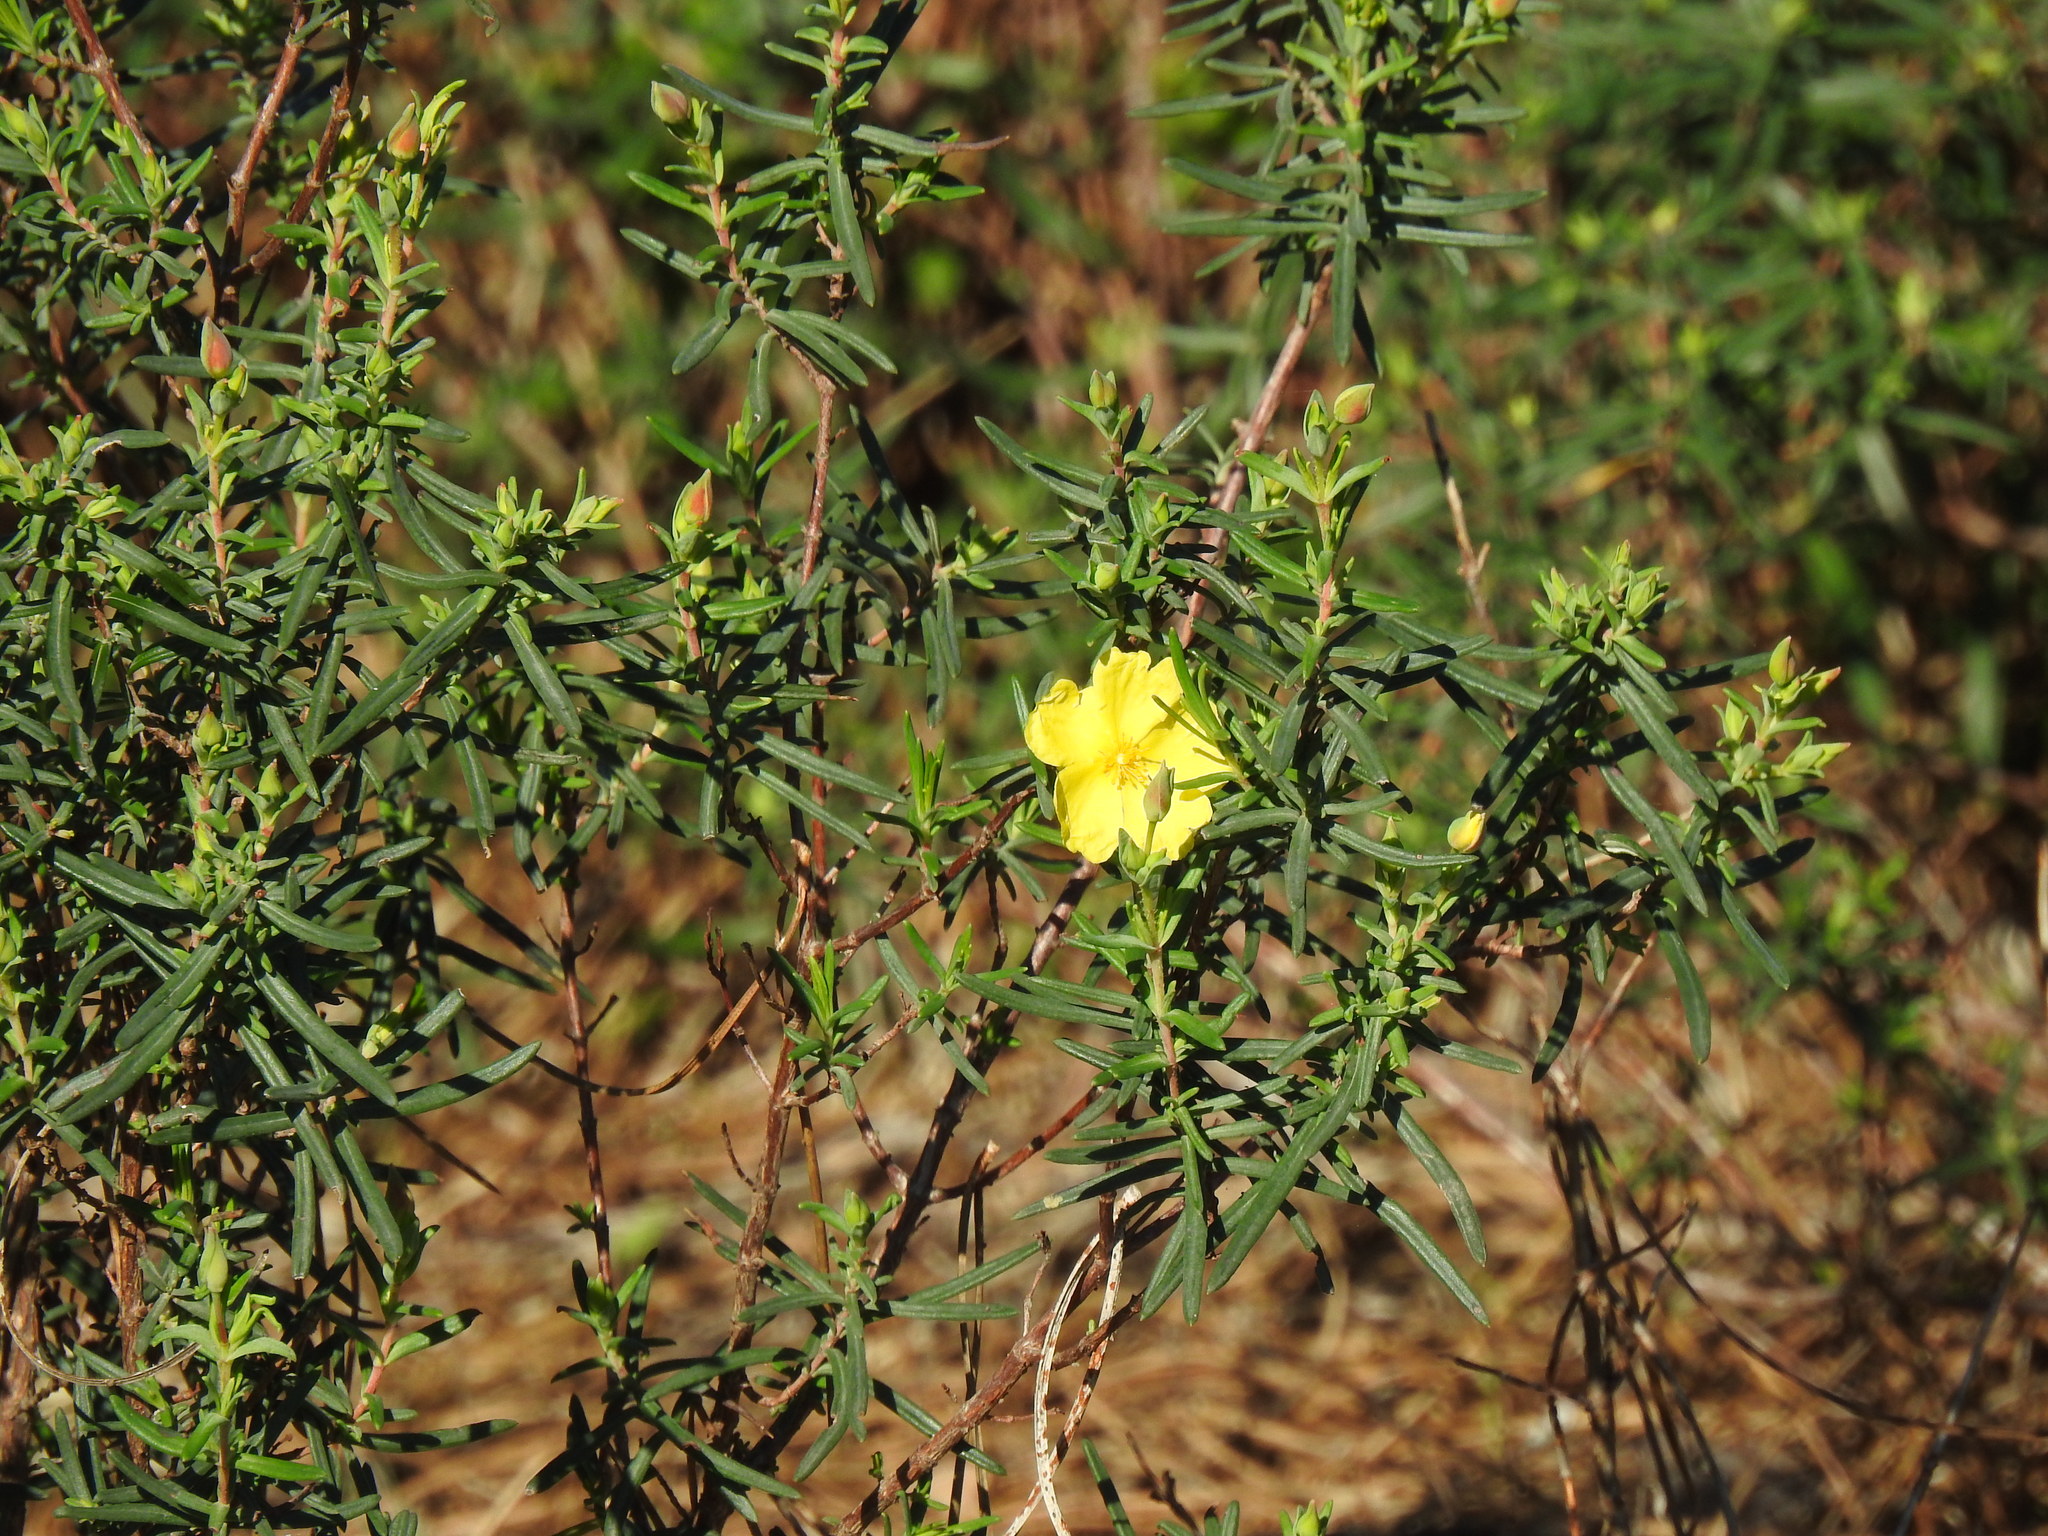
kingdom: Plantae
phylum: Tracheophyta
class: Magnoliopsida
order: Malvales
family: Cistaceae
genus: Halimium
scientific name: Halimium calycinum
